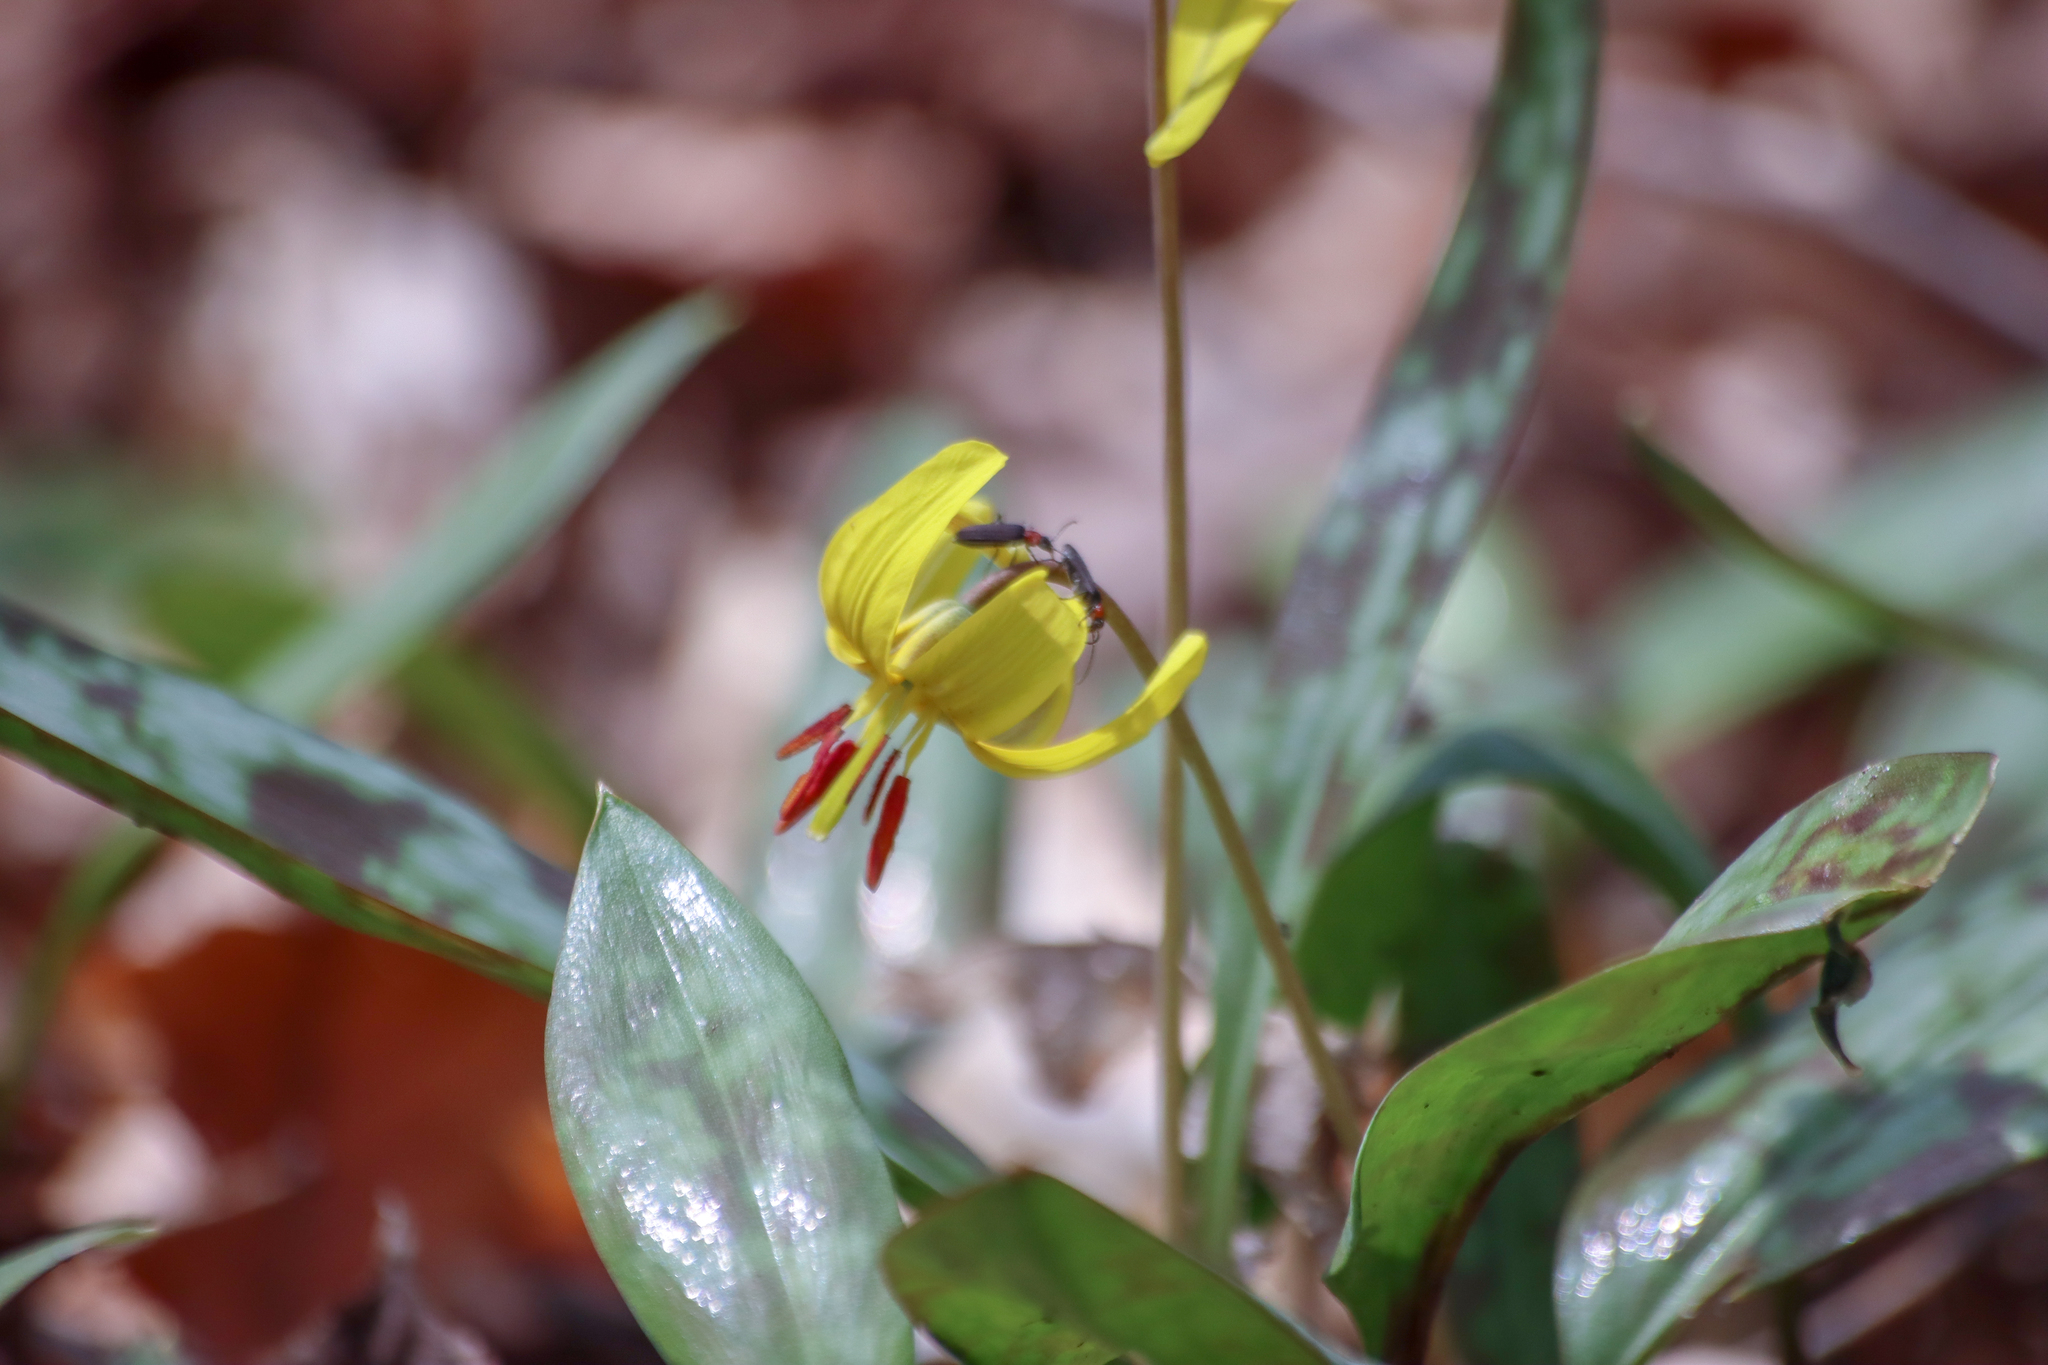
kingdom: Plantae
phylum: Tracheophyta
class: Liliopsida
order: Liliales
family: Liliaceae
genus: Erythronium
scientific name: Erythronium americanum
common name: Yellow adder's-tongue
